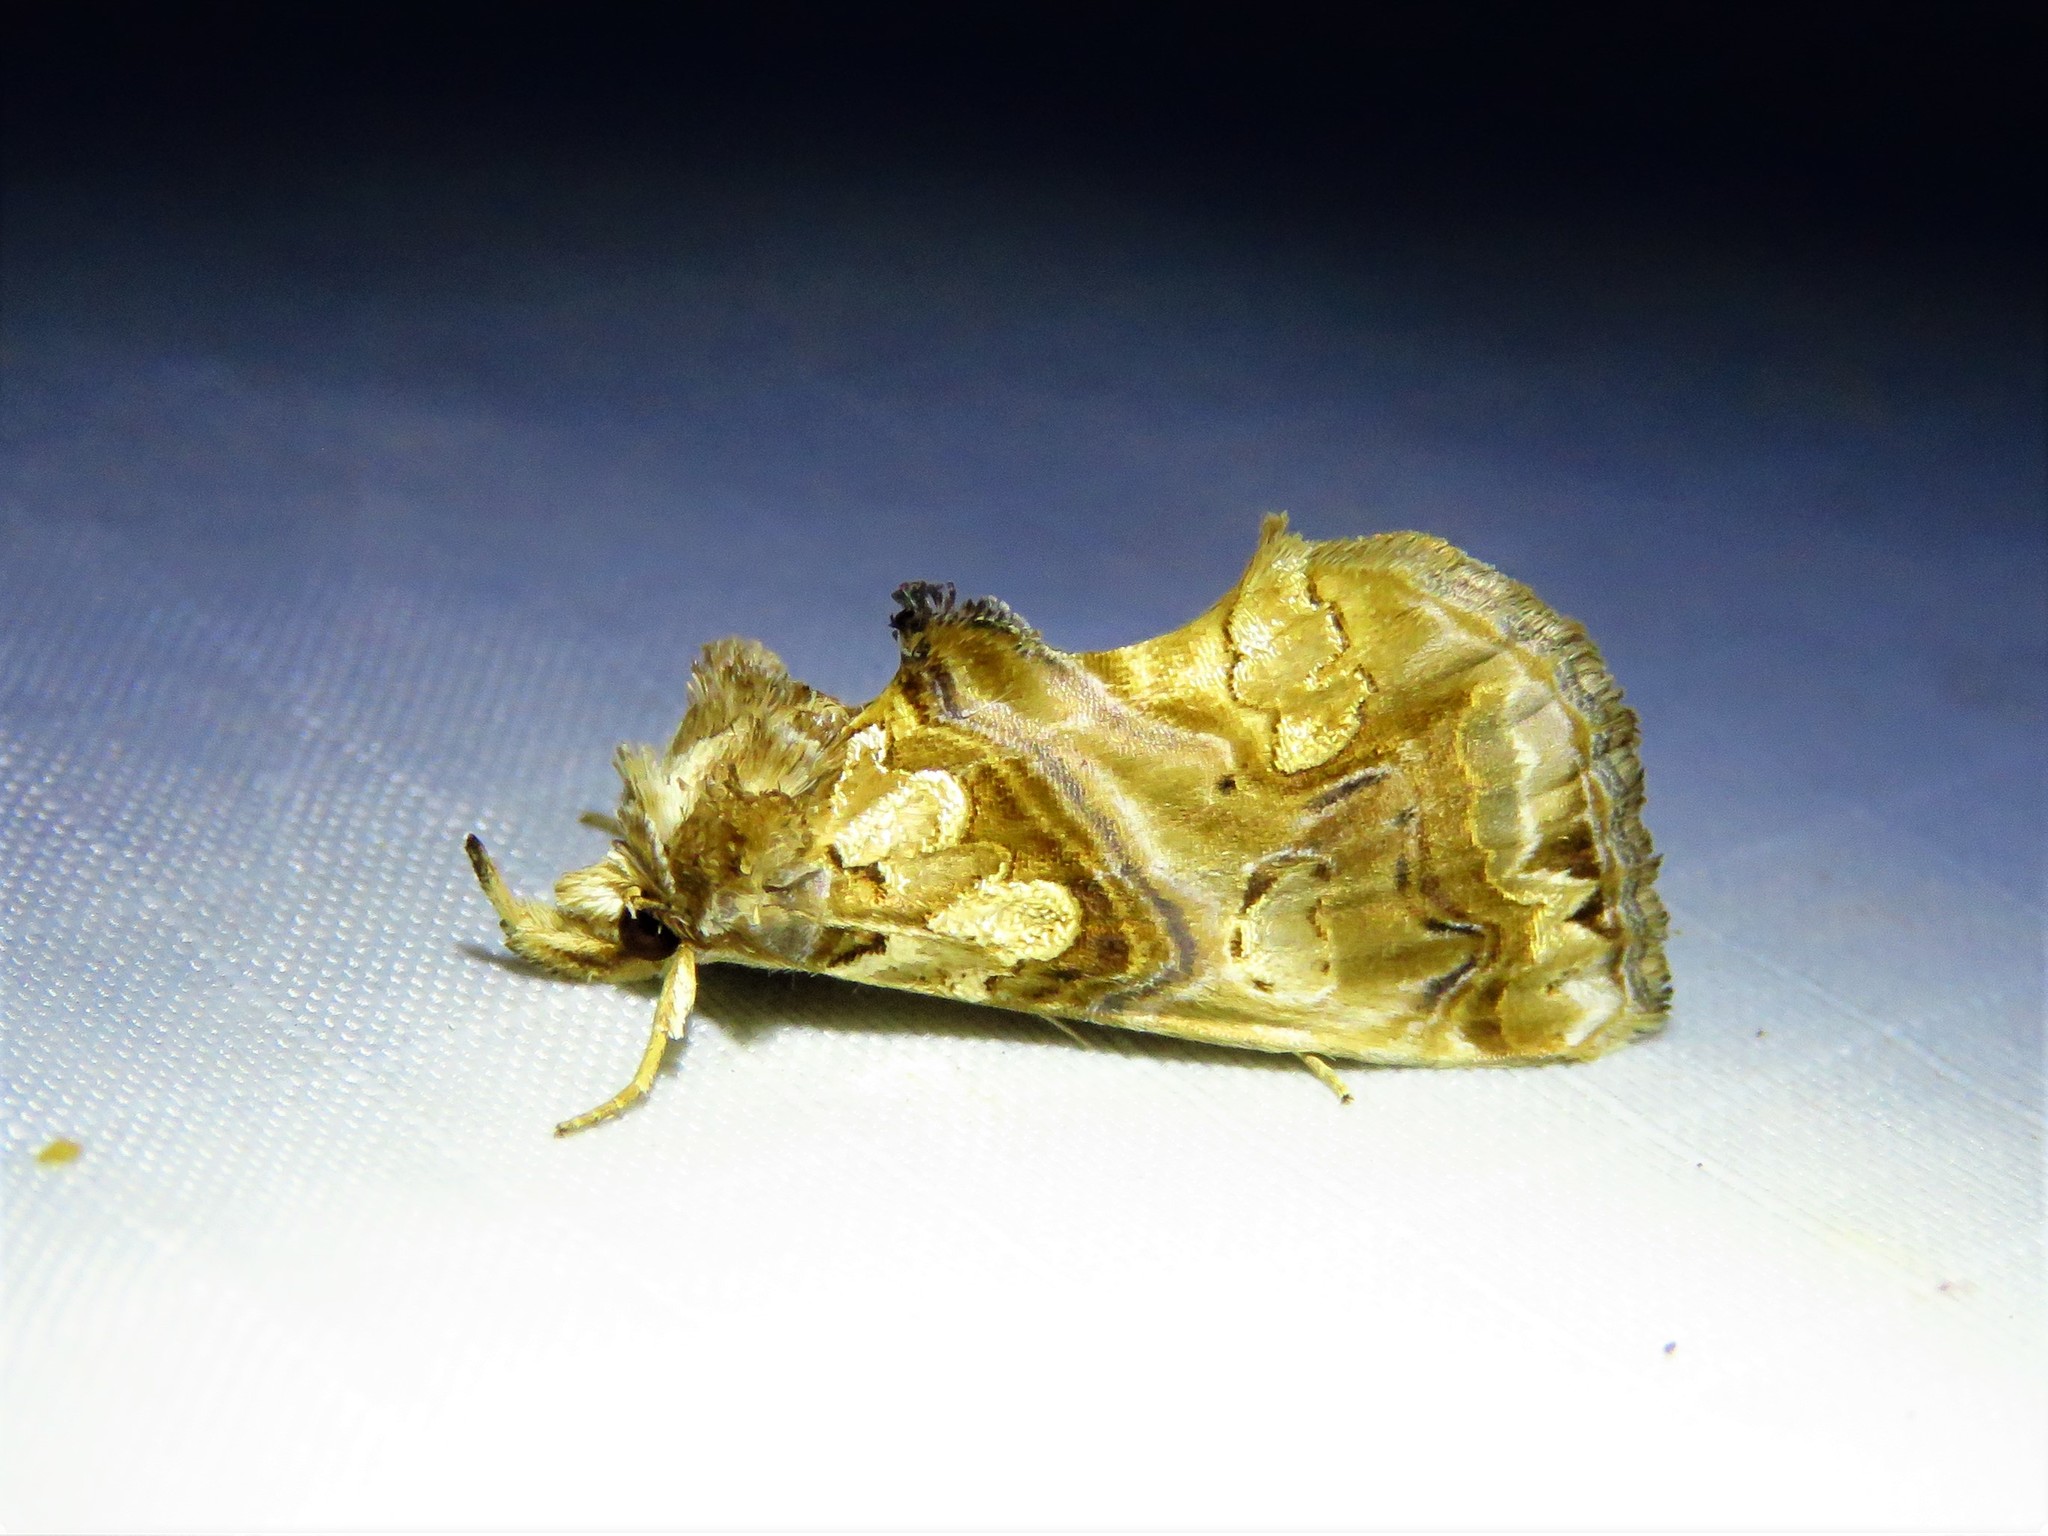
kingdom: Animalia
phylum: Arthropoda
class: Insecta
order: Lepidoptera
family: Erebidae
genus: Plusiodonta
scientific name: Plusiodonta compressipalpis
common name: Moonseed moth
